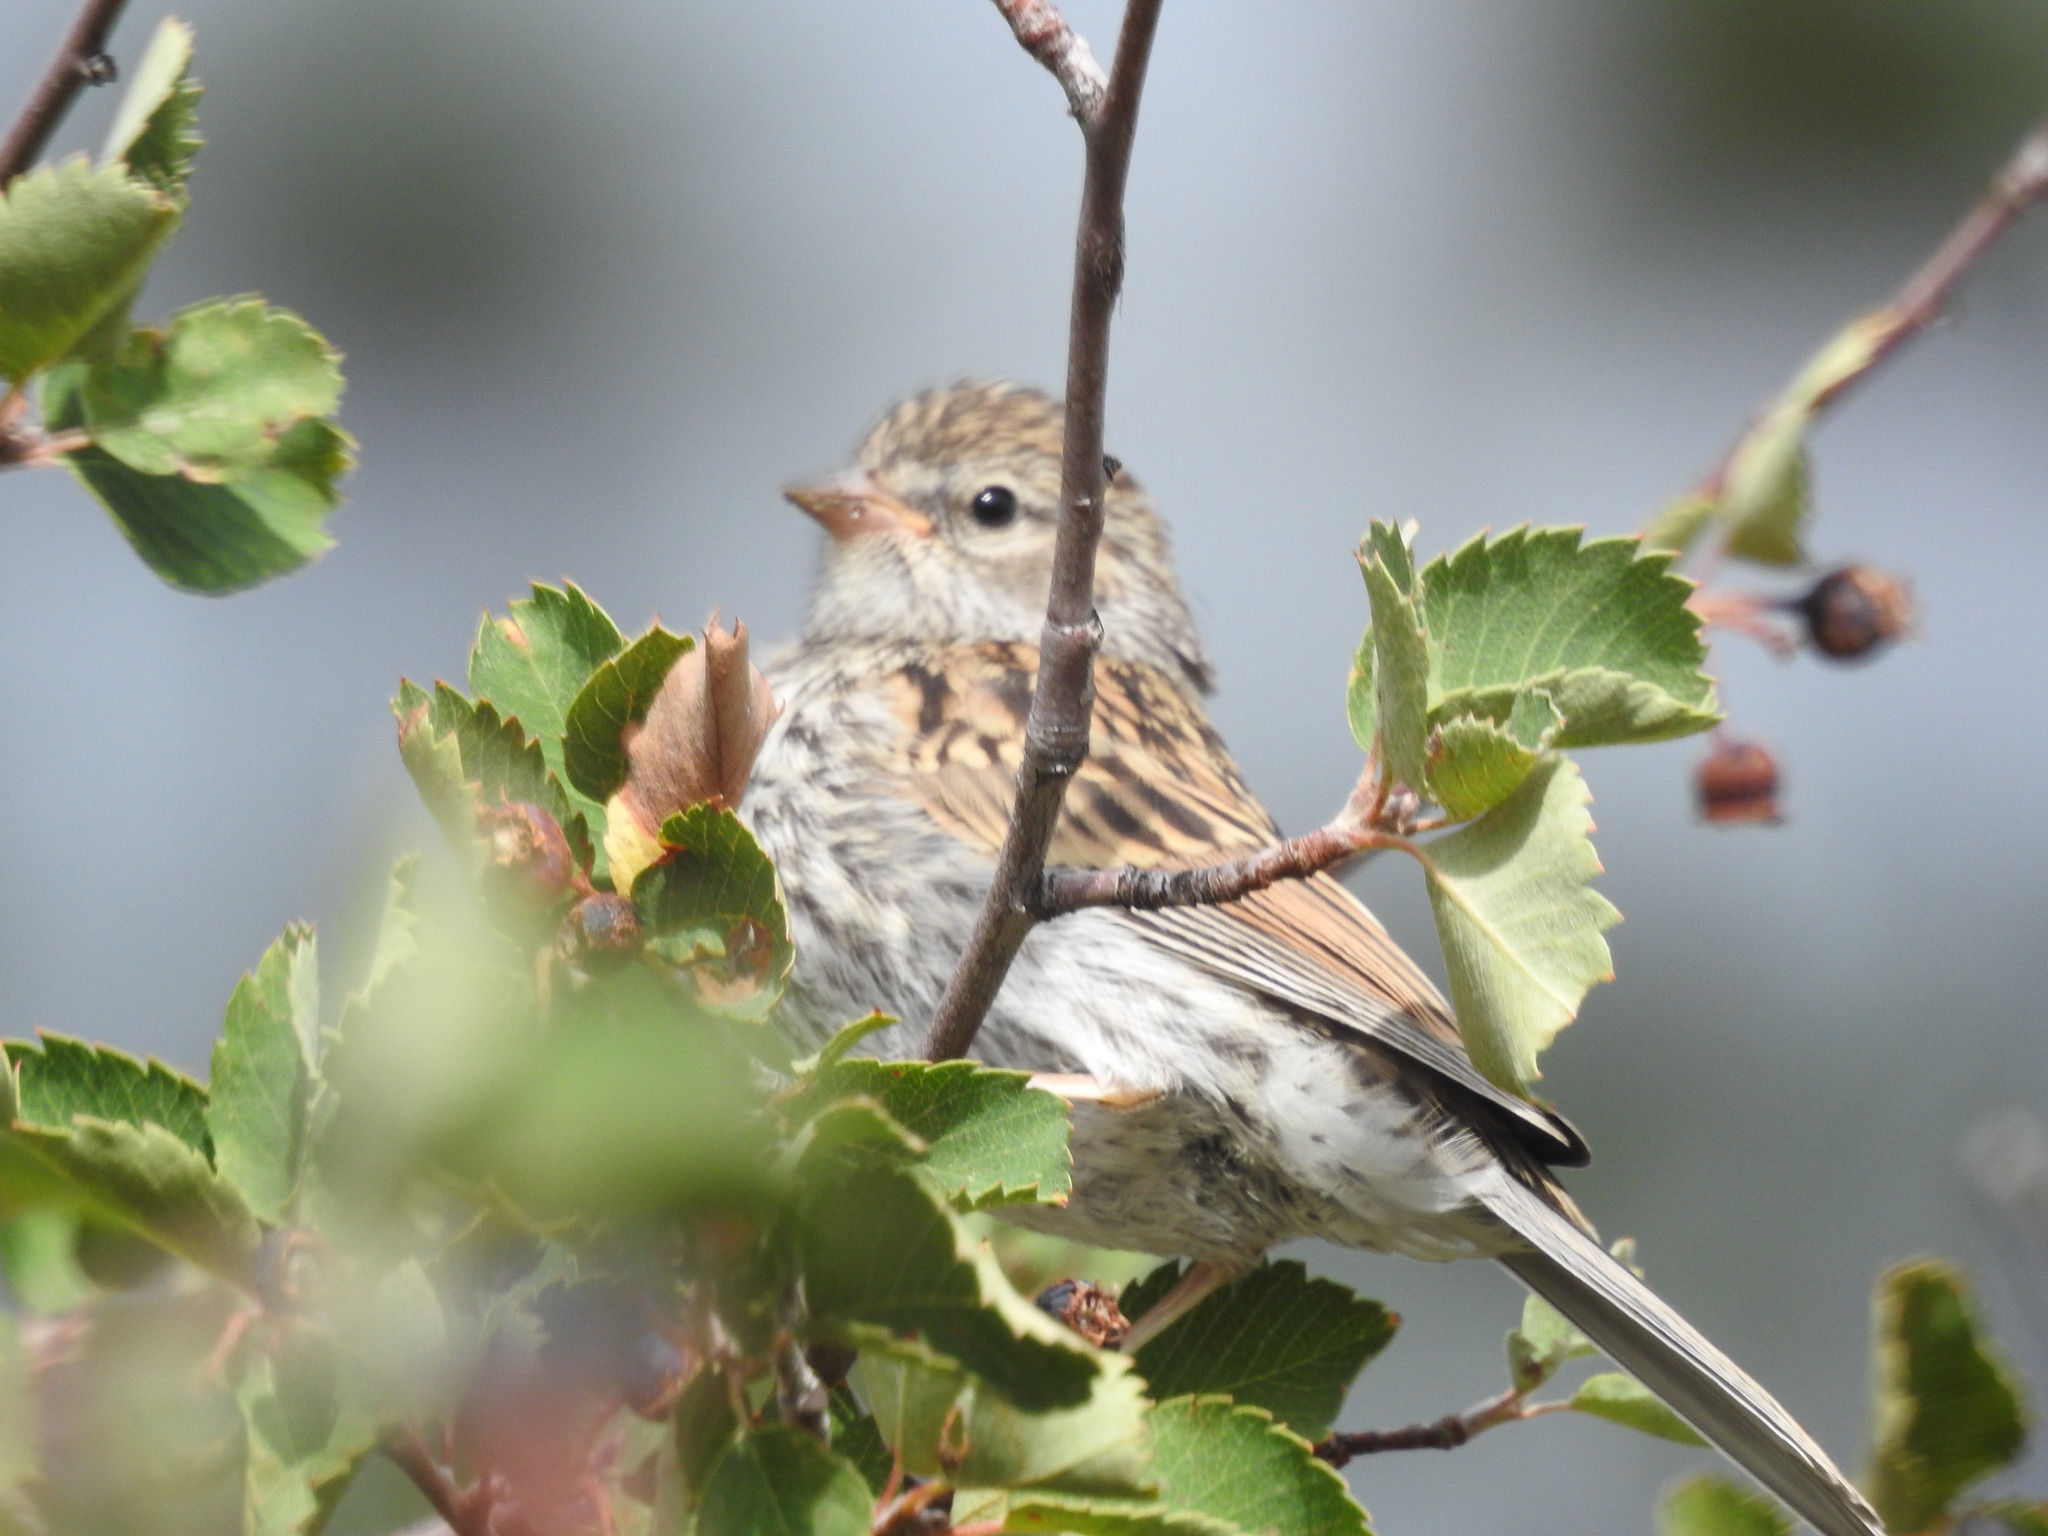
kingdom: Animalia
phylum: Chordata
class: Aves
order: Passeriformes
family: Passerellidae
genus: Spizella
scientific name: Spizella passerina
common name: Chipping sparrow
